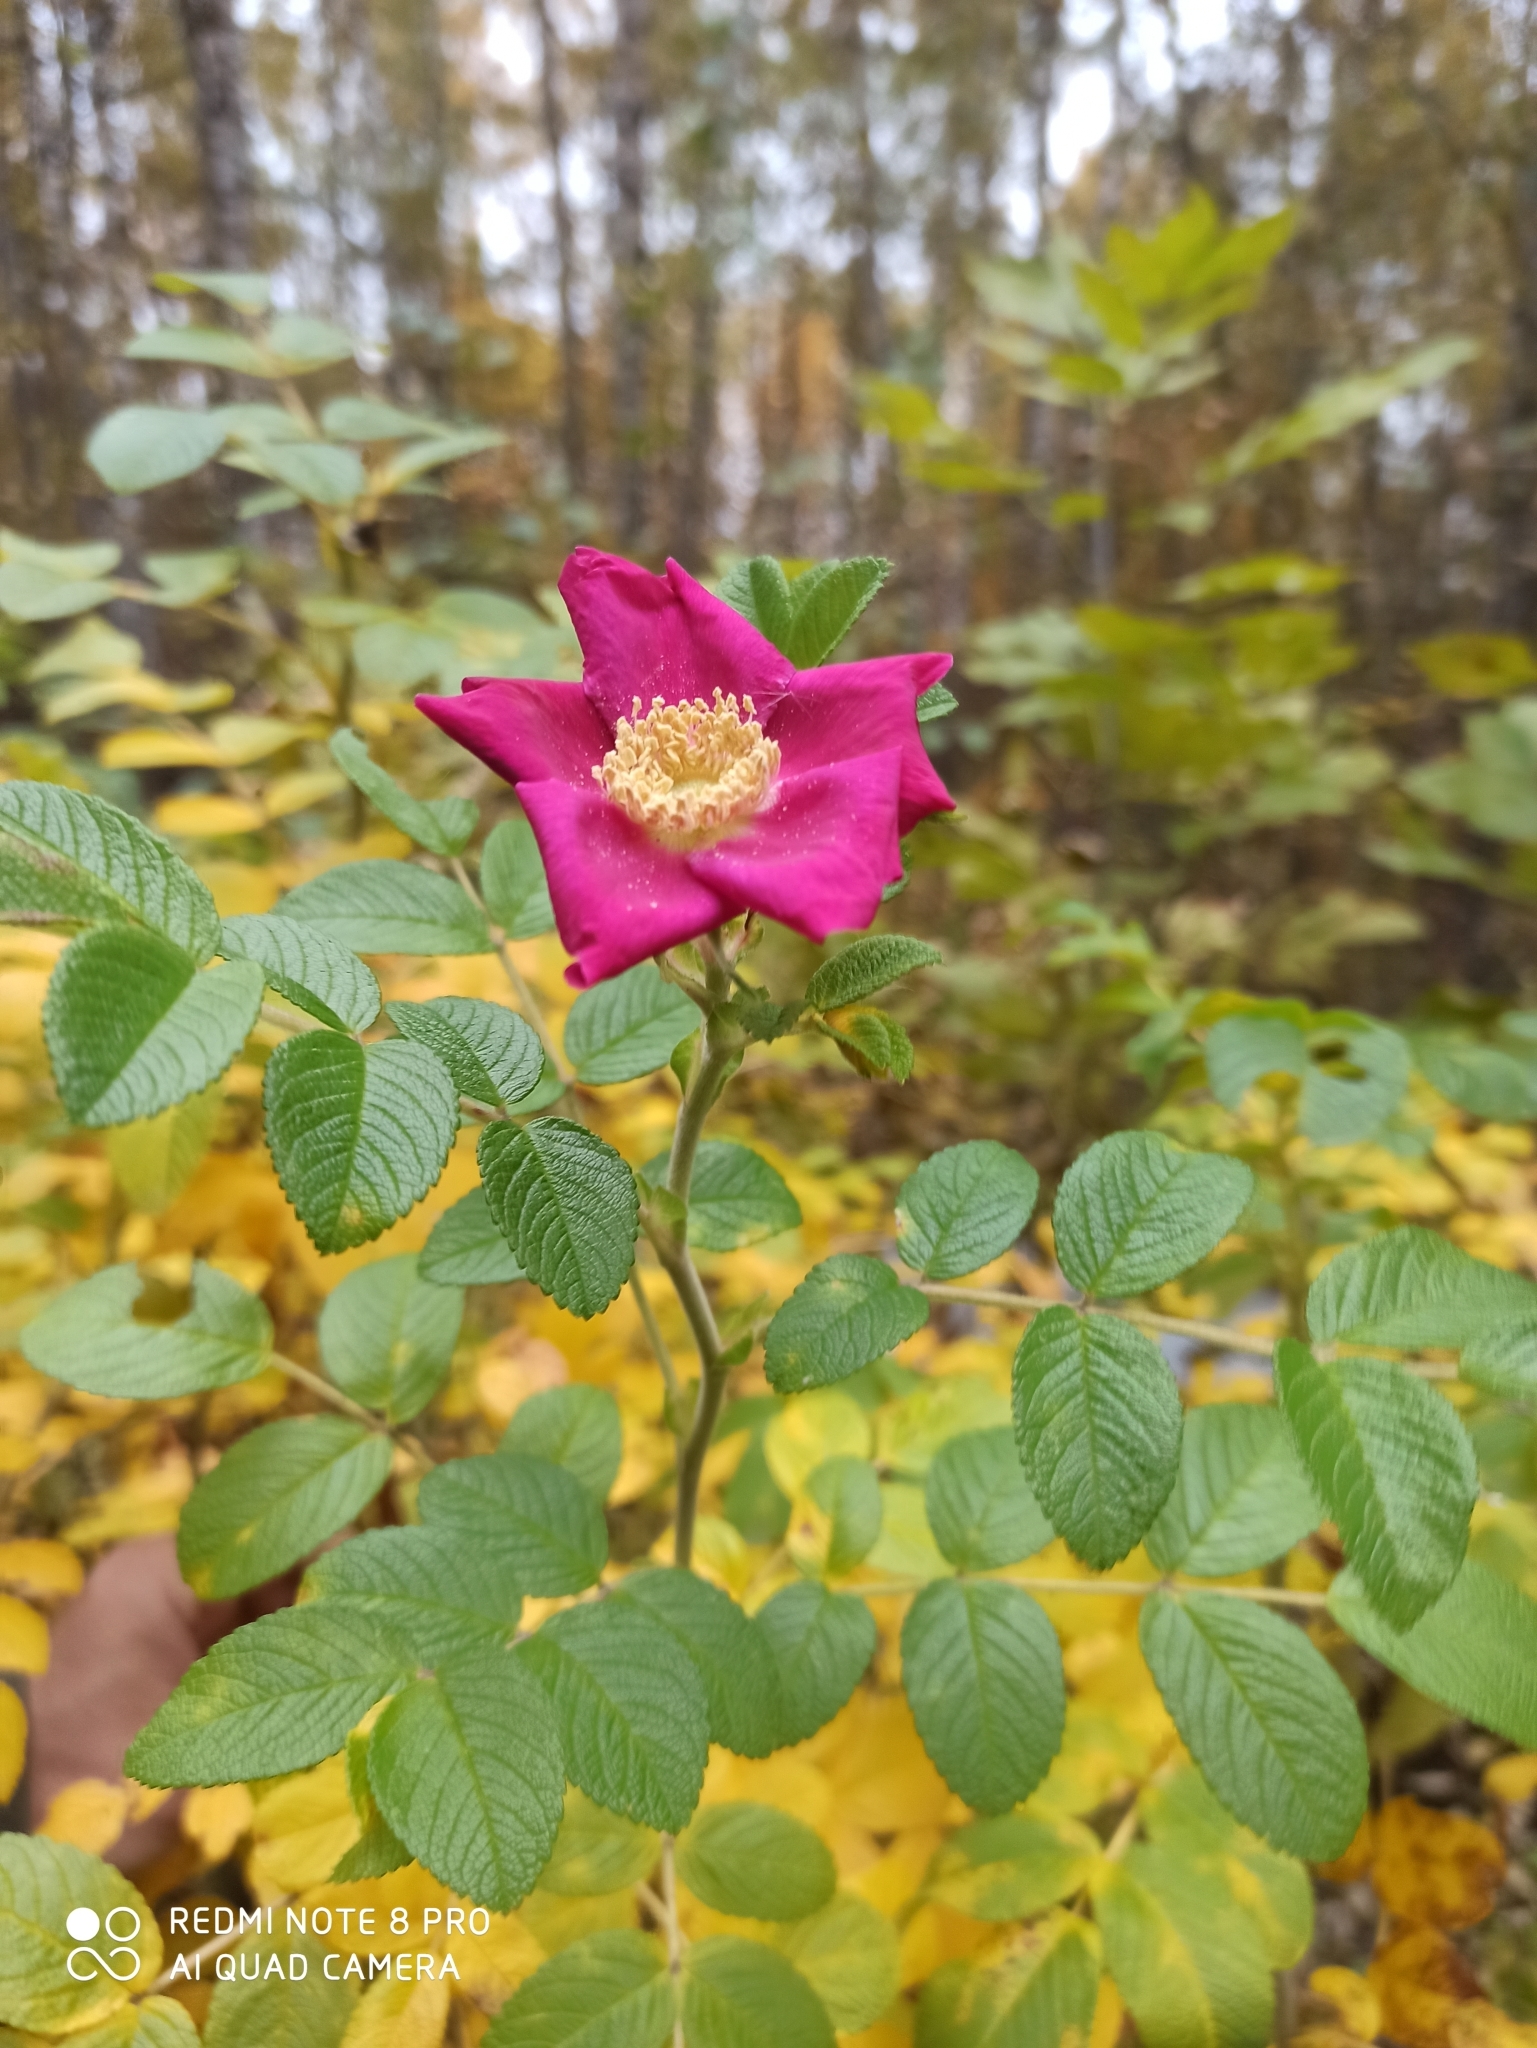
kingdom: Plantae
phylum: Tracheophyta
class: Magnoliopsida
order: Rosales
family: Rosaceae
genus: Rosa
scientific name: Rosa rugosa
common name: Japanese rose
